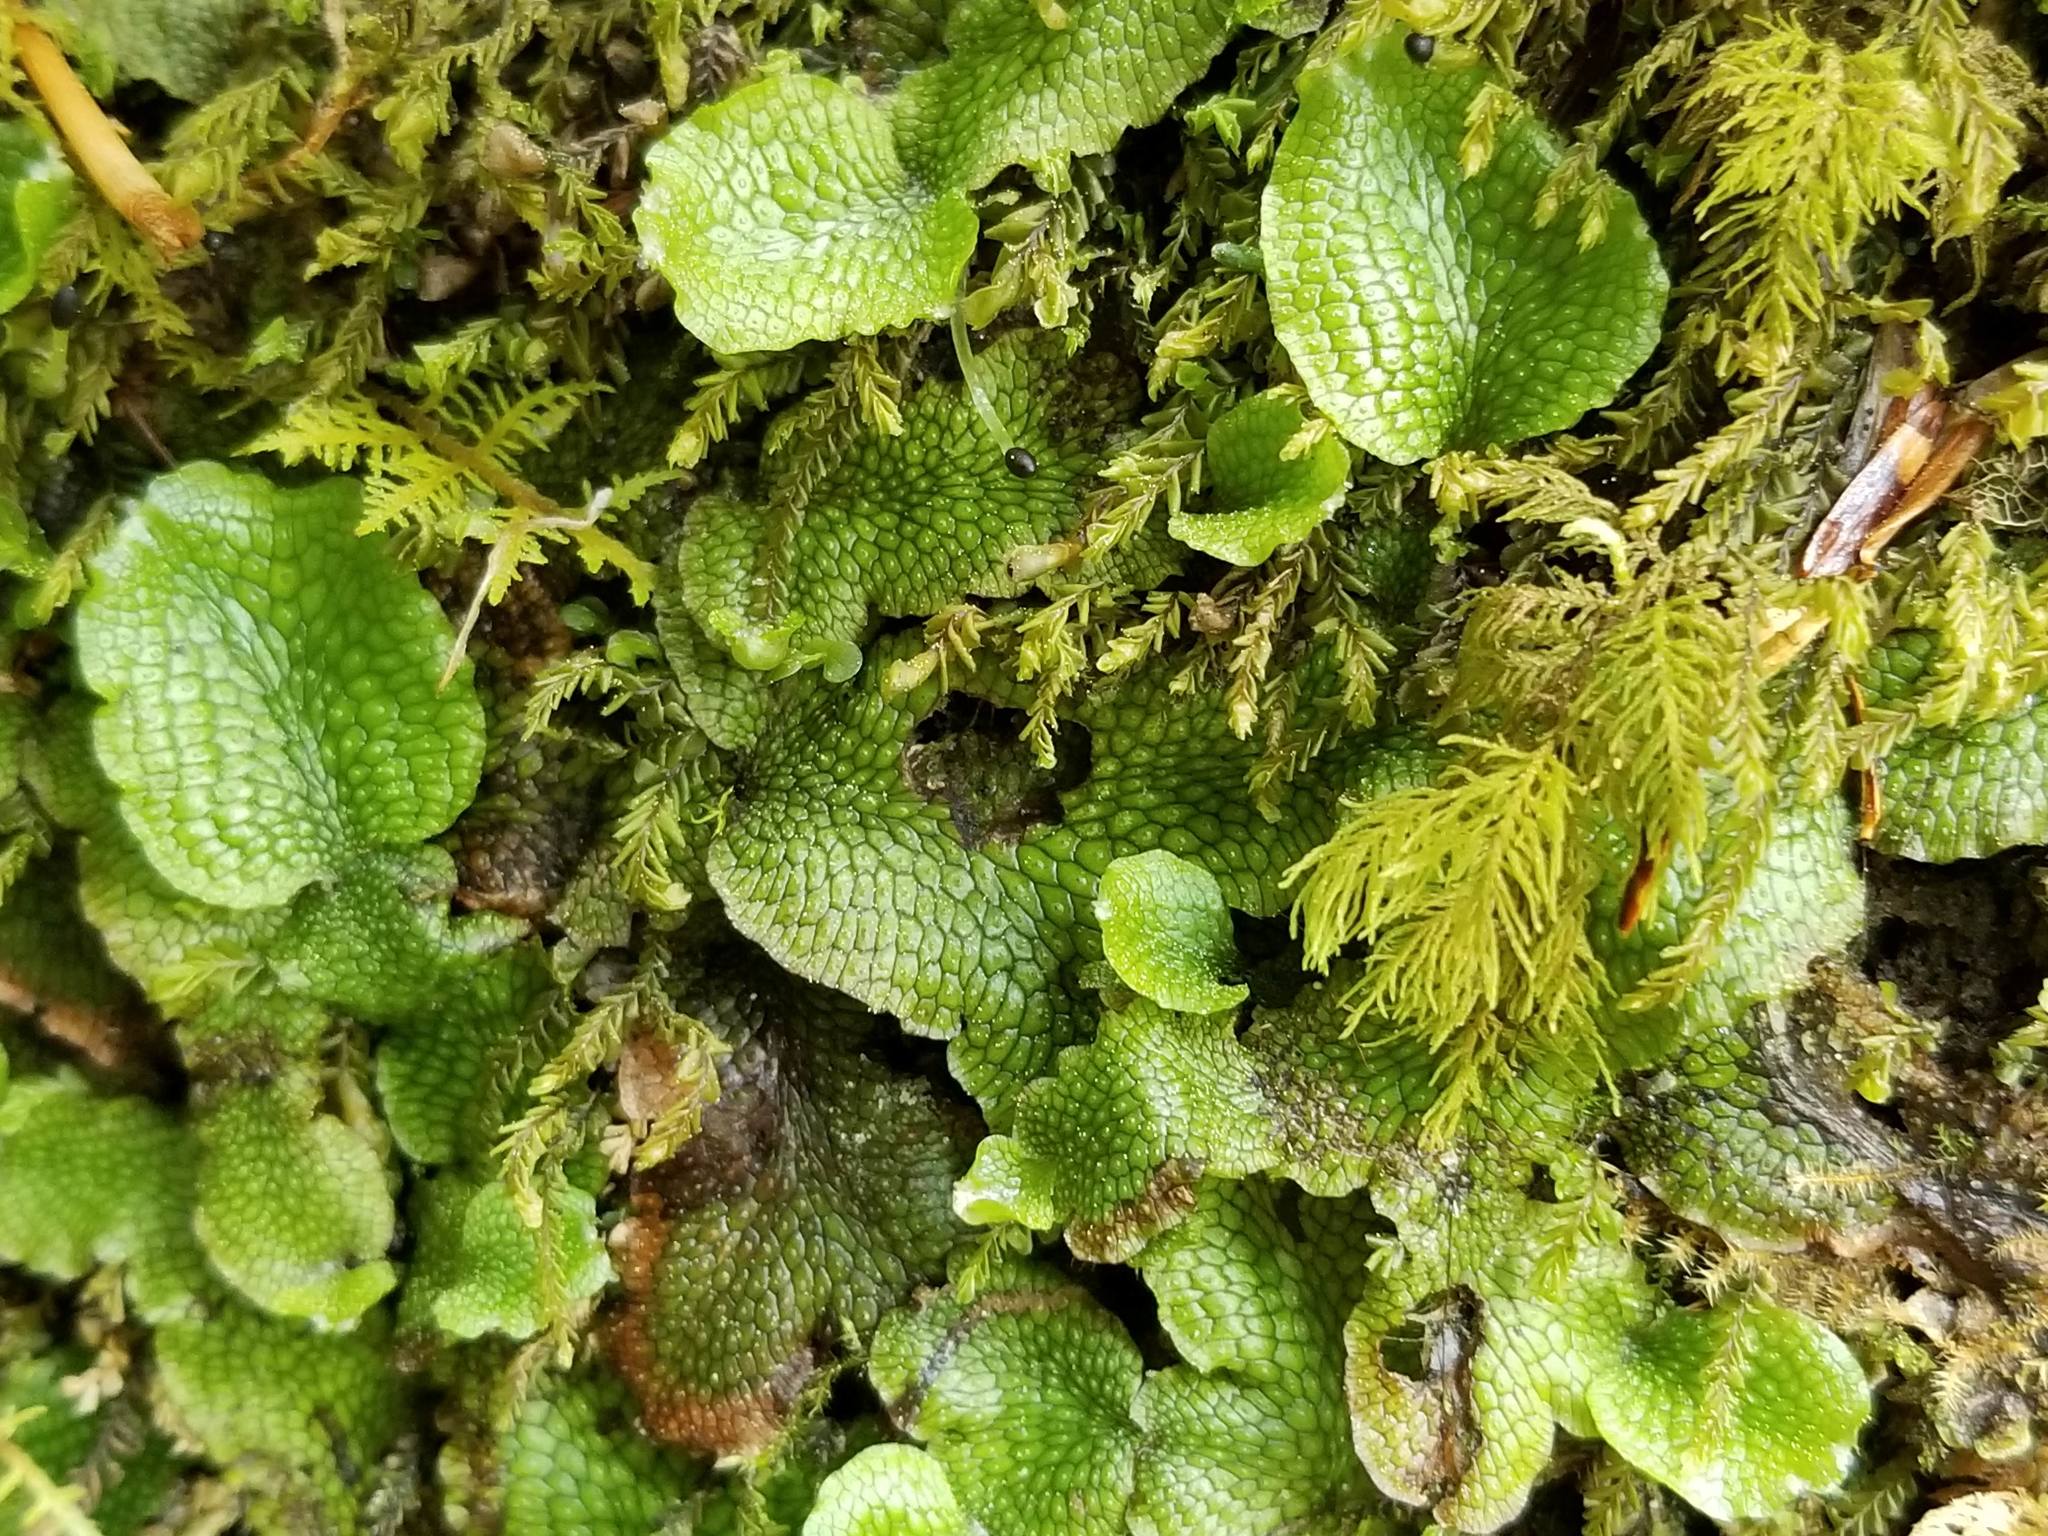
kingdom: Plantae
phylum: Marchantiophyta
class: Marchantiopsida
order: Marchantiales
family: Conocephalaceae
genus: Conocephalum
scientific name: Conocephalum salebrosum
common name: Cat-tongue liverwort
